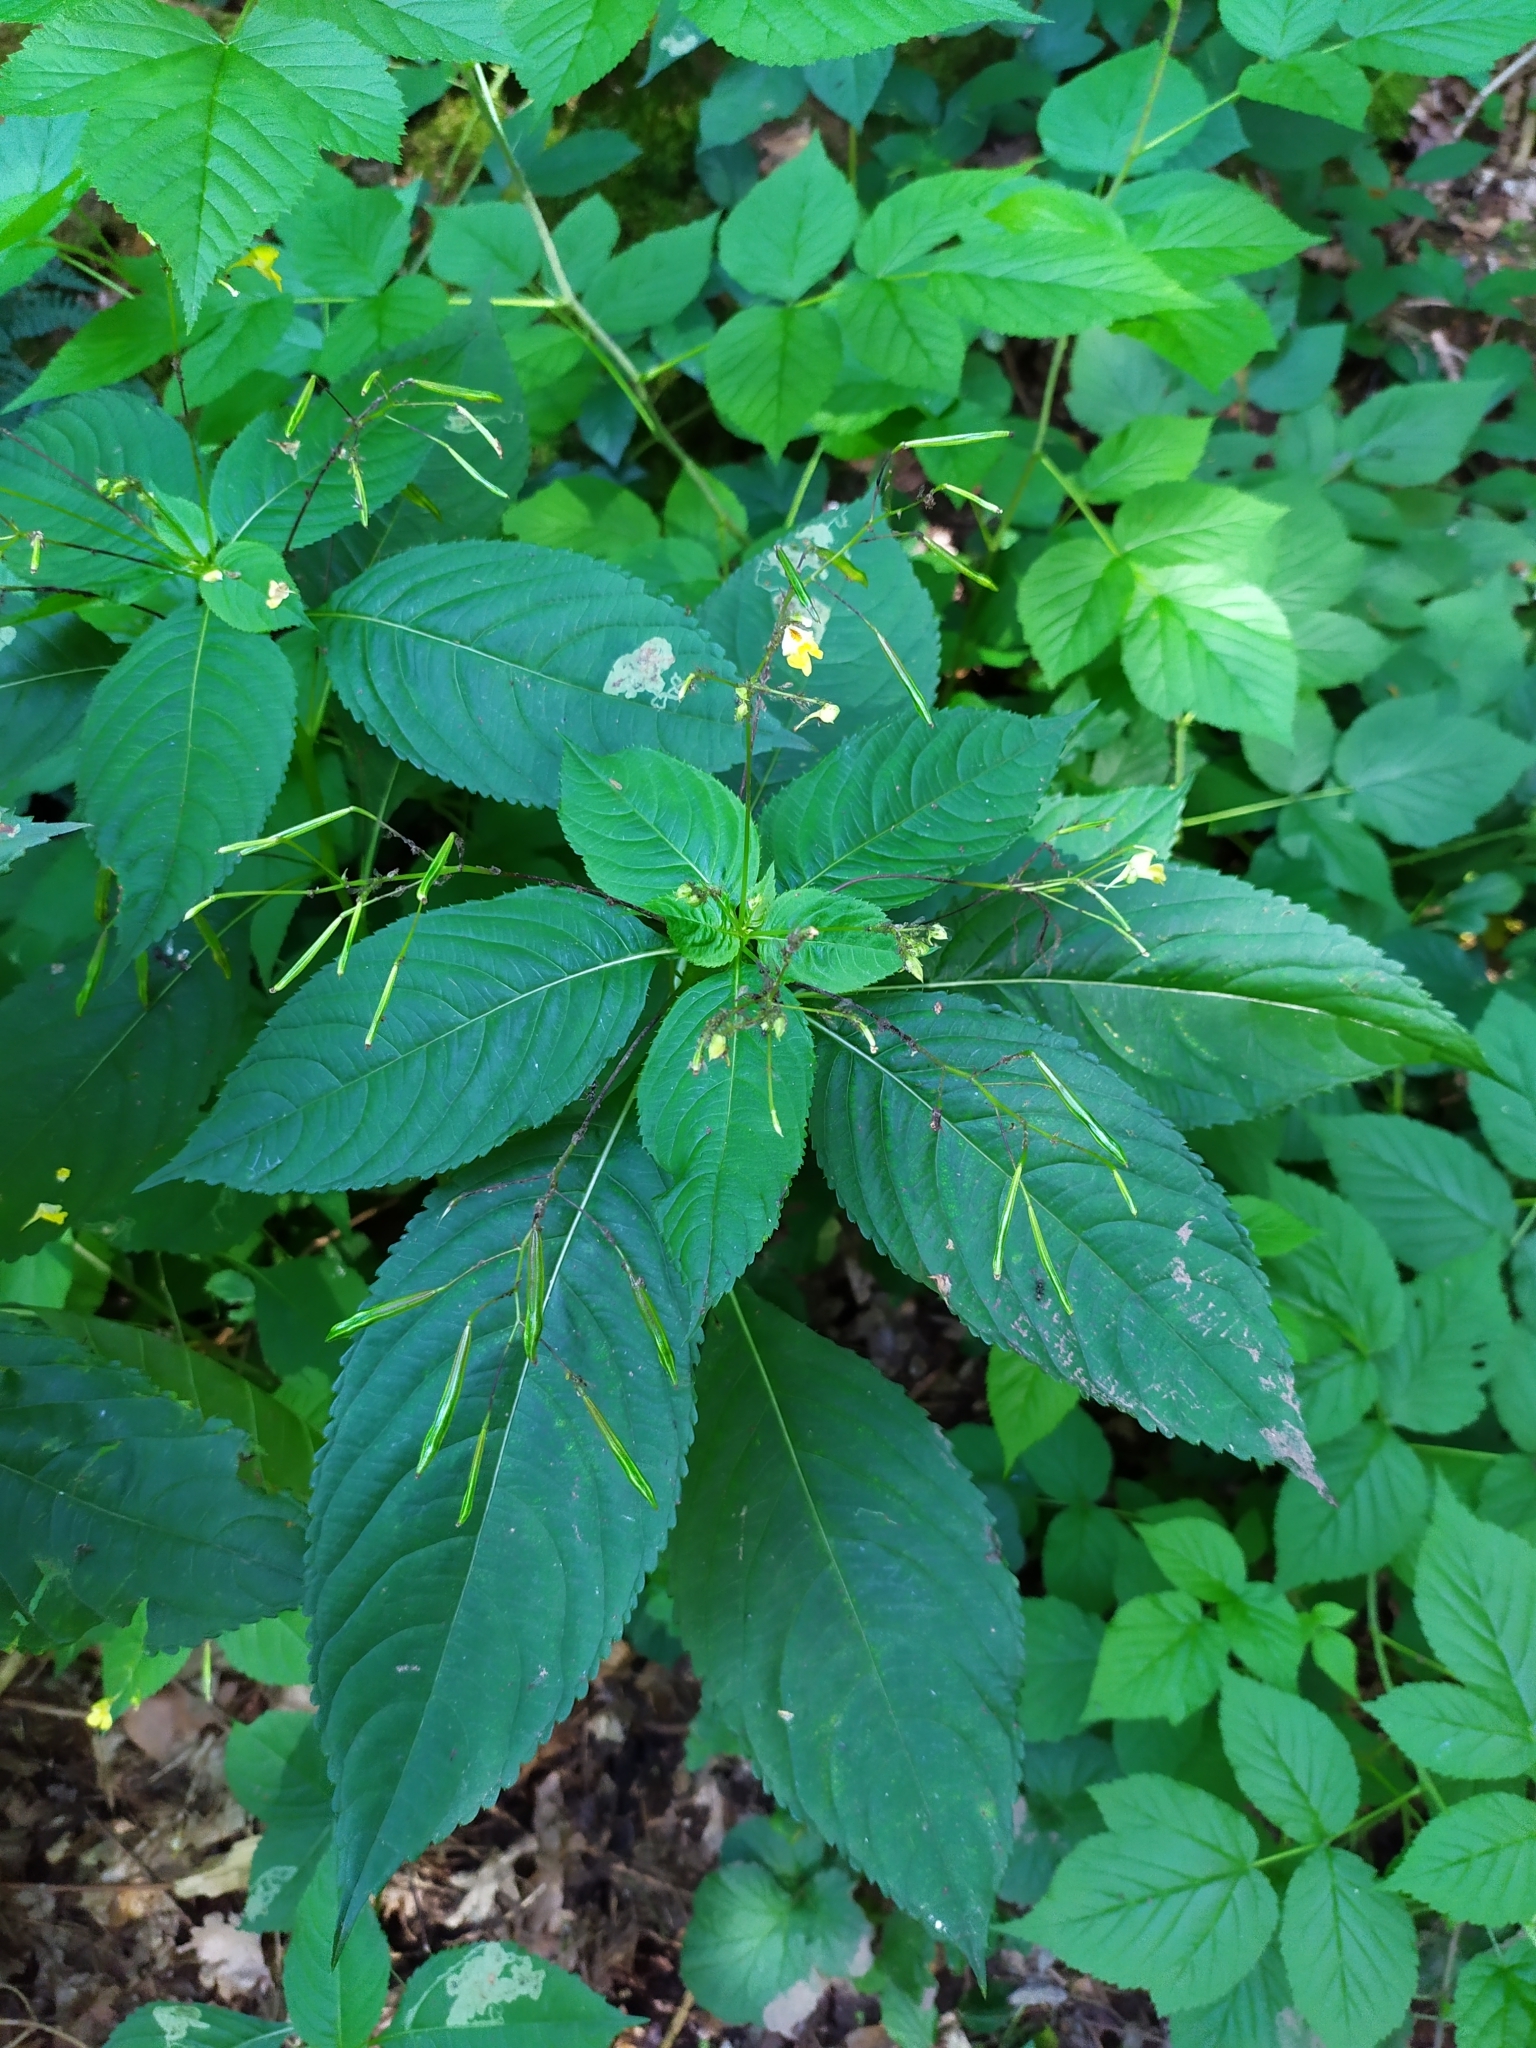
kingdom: Plantae
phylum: Tracheophyta
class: Magnoliopsida
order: Ericales
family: Balsaminaceae
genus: Impatiens
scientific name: Impatiens parviflora
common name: Small balsam
